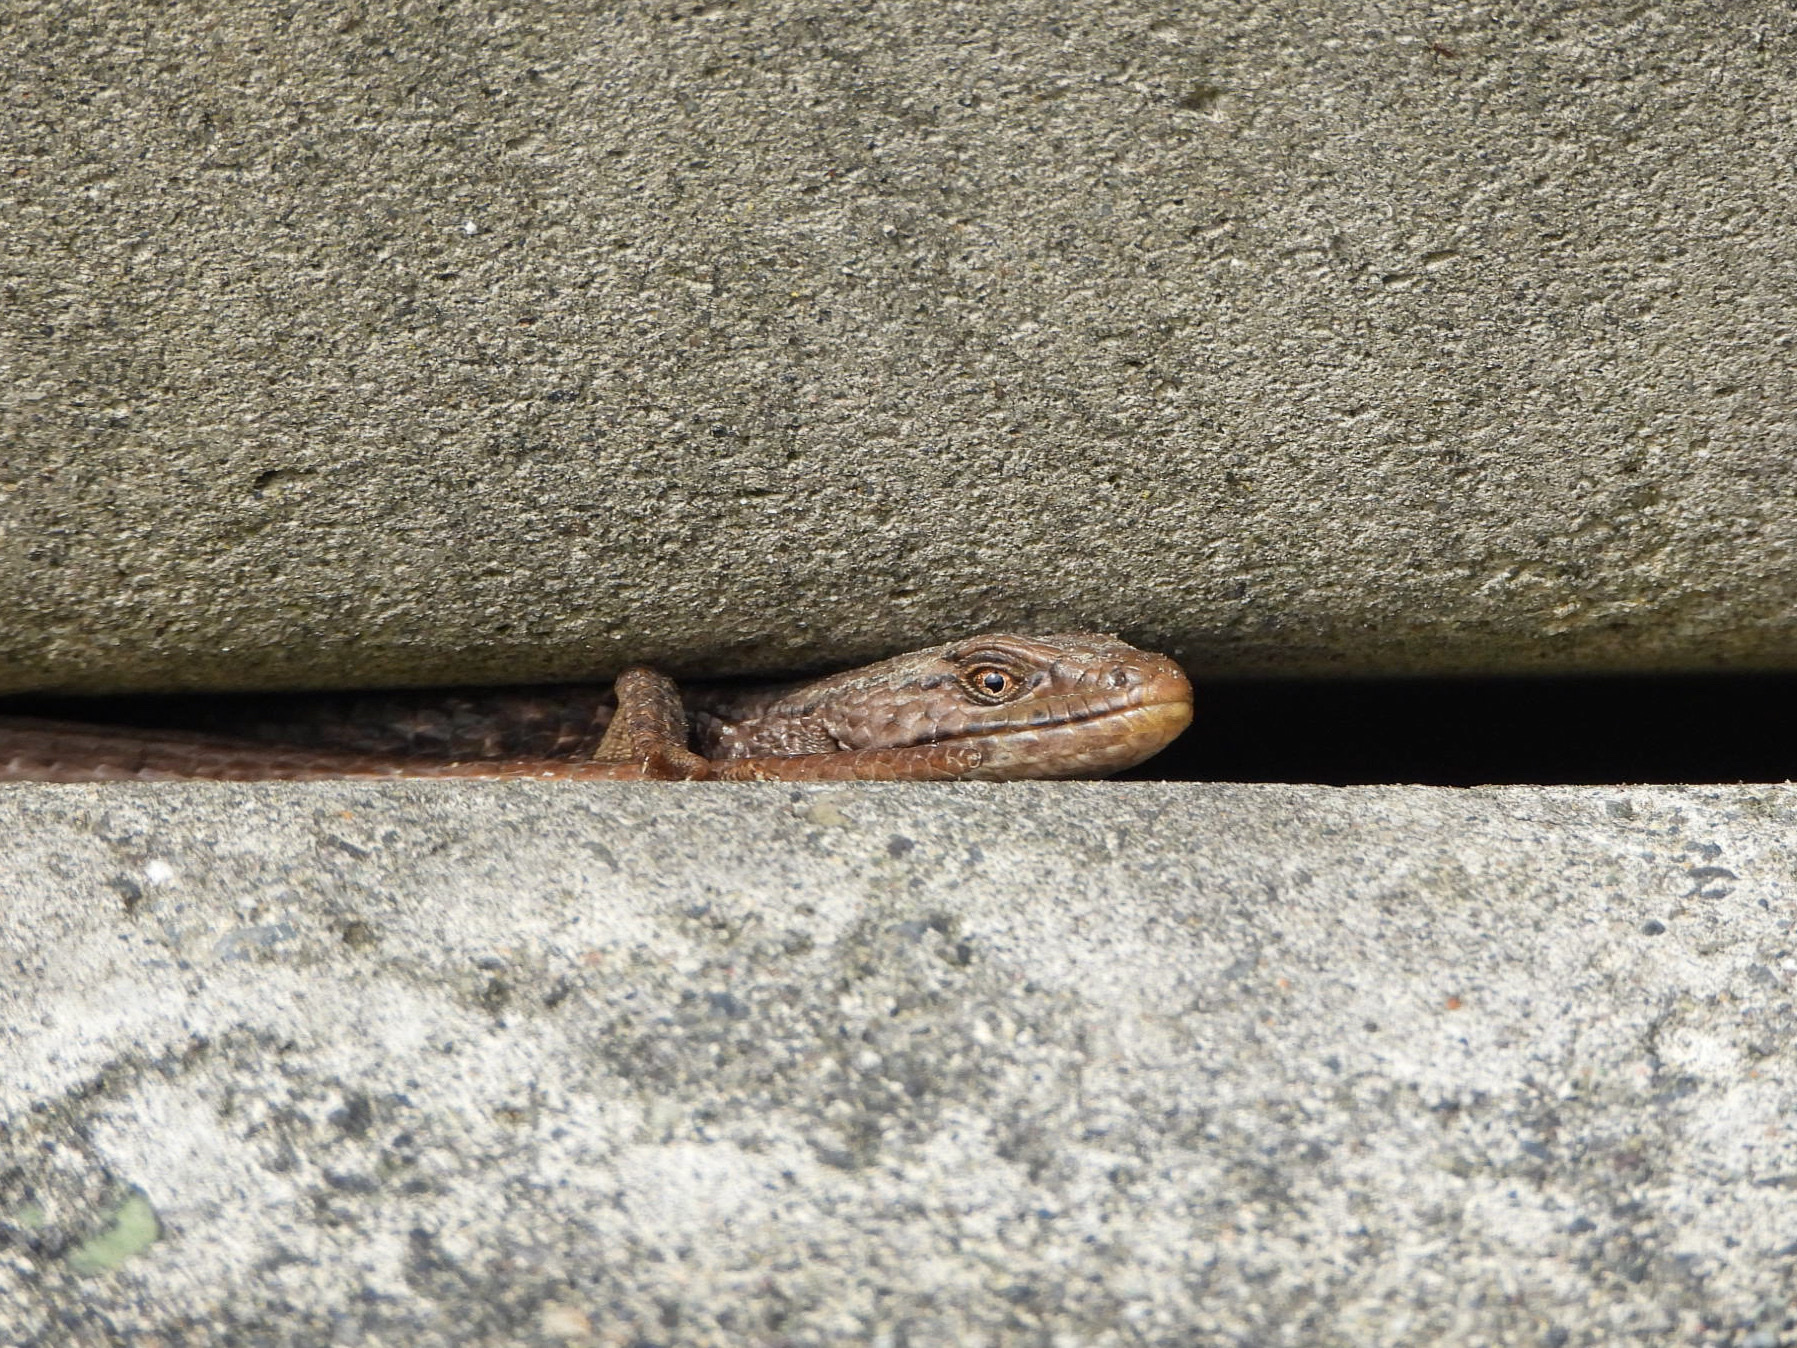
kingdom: Animalia
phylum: Chordata
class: Squamata
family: Anguidae
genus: Elgaria
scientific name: Elgaria coerulea
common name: Northern alligator lizard
